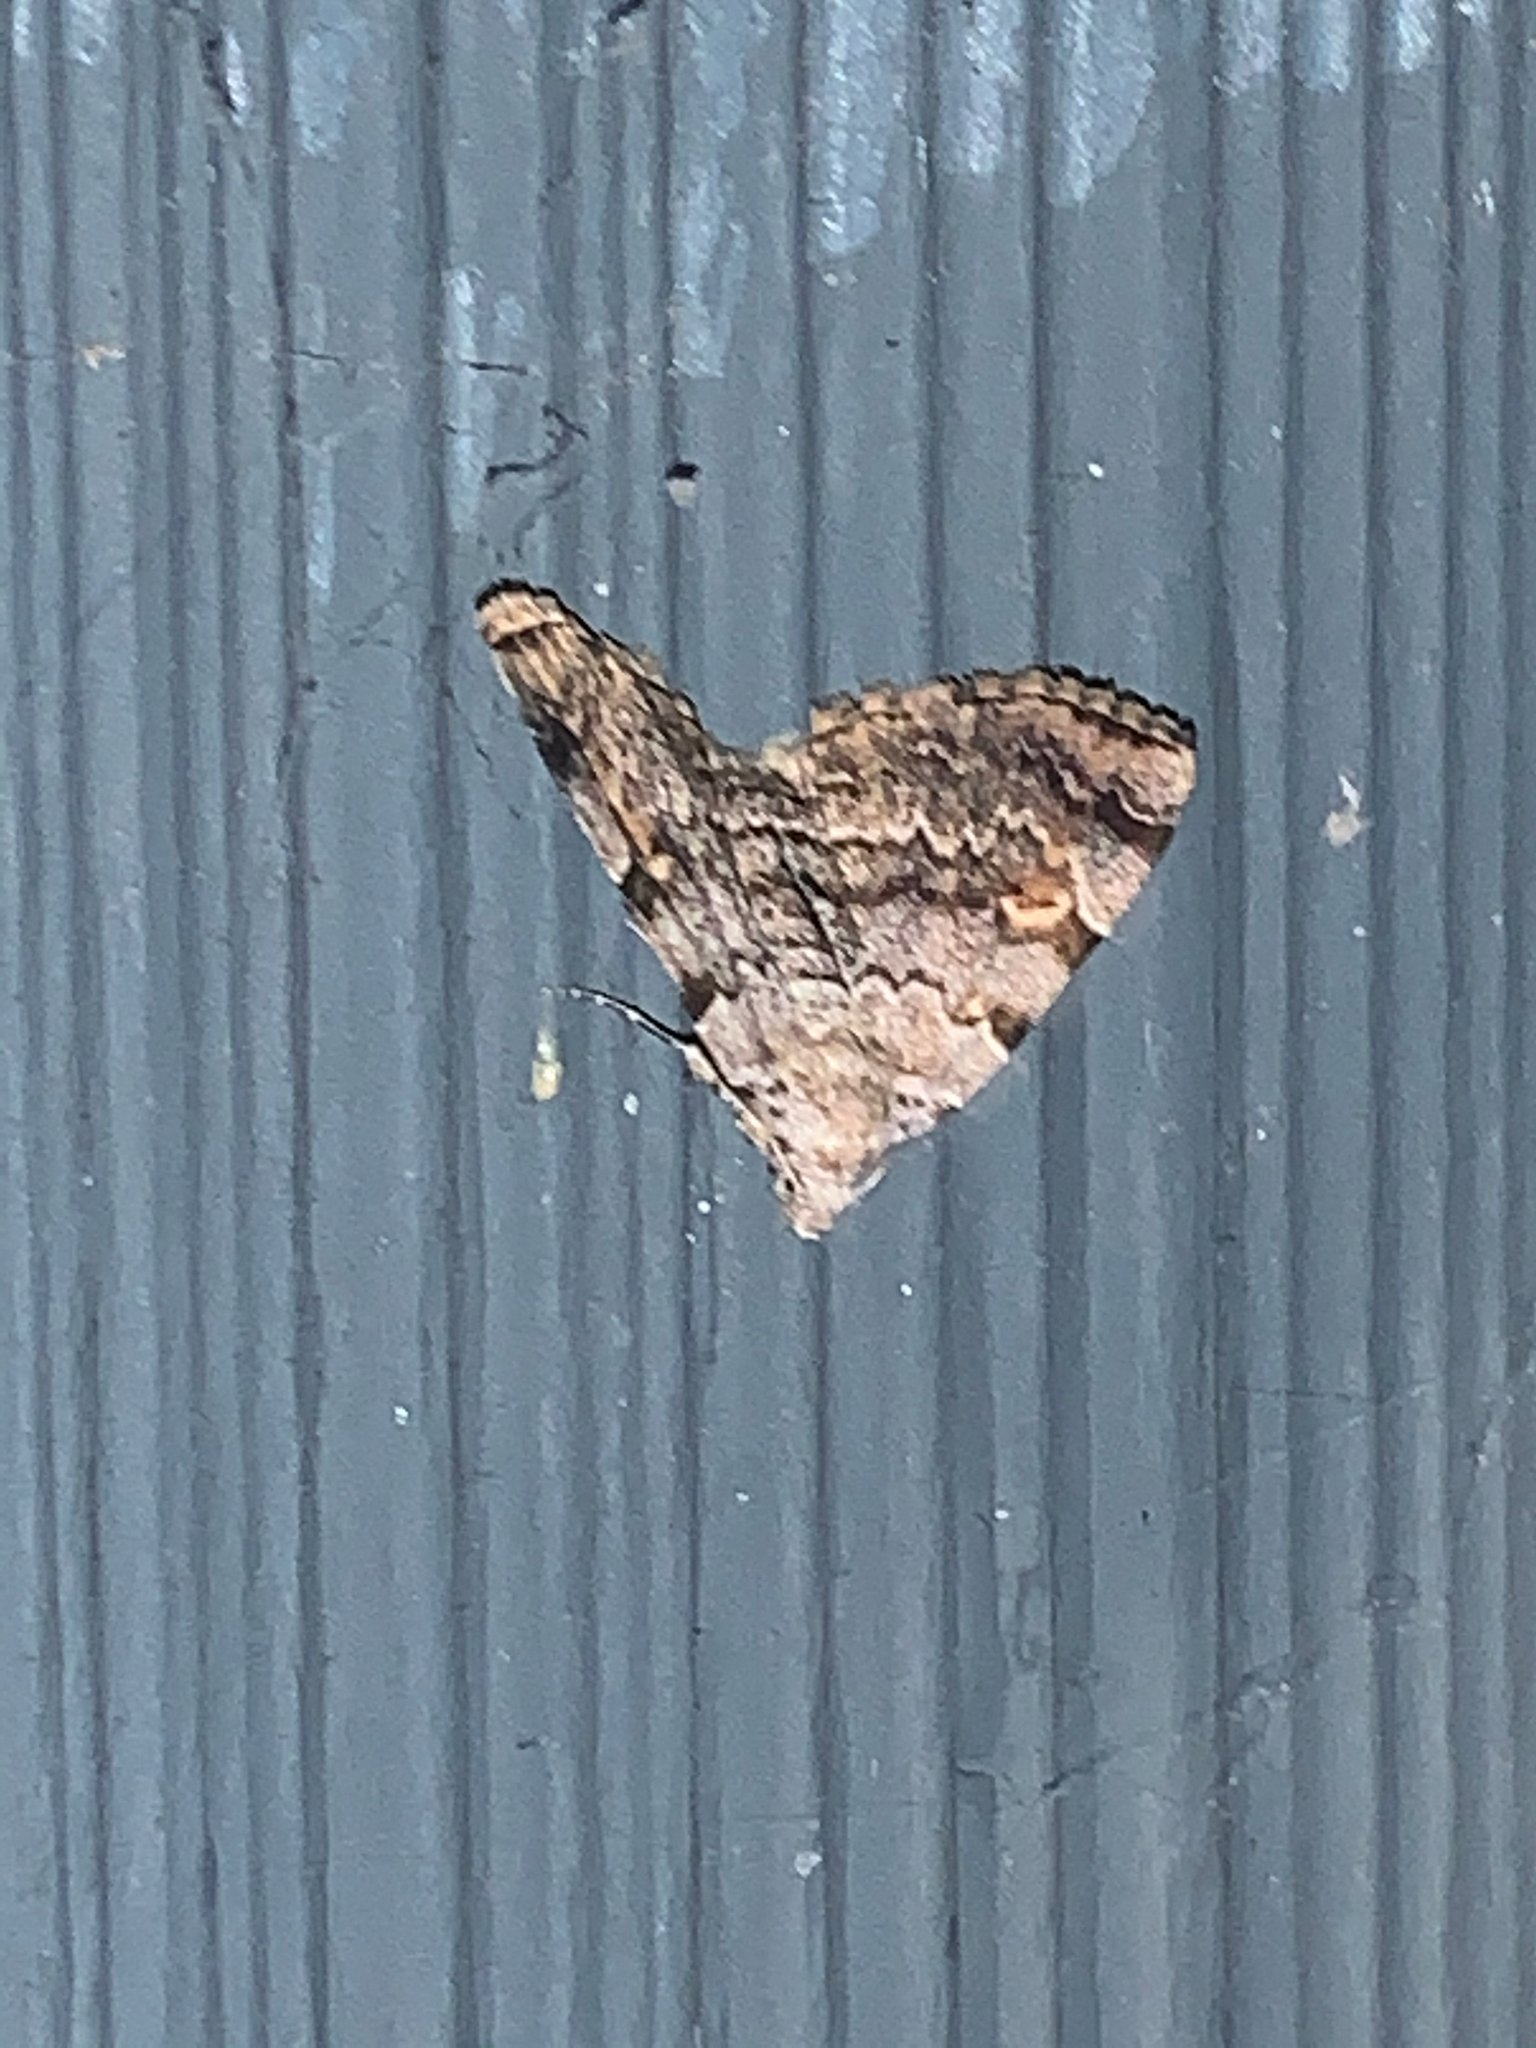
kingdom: Animalia
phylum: Arthropoda
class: Insecta
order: Lepidoptera
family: Erebidae
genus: Idia
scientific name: Idia americalis
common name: American idia moth
